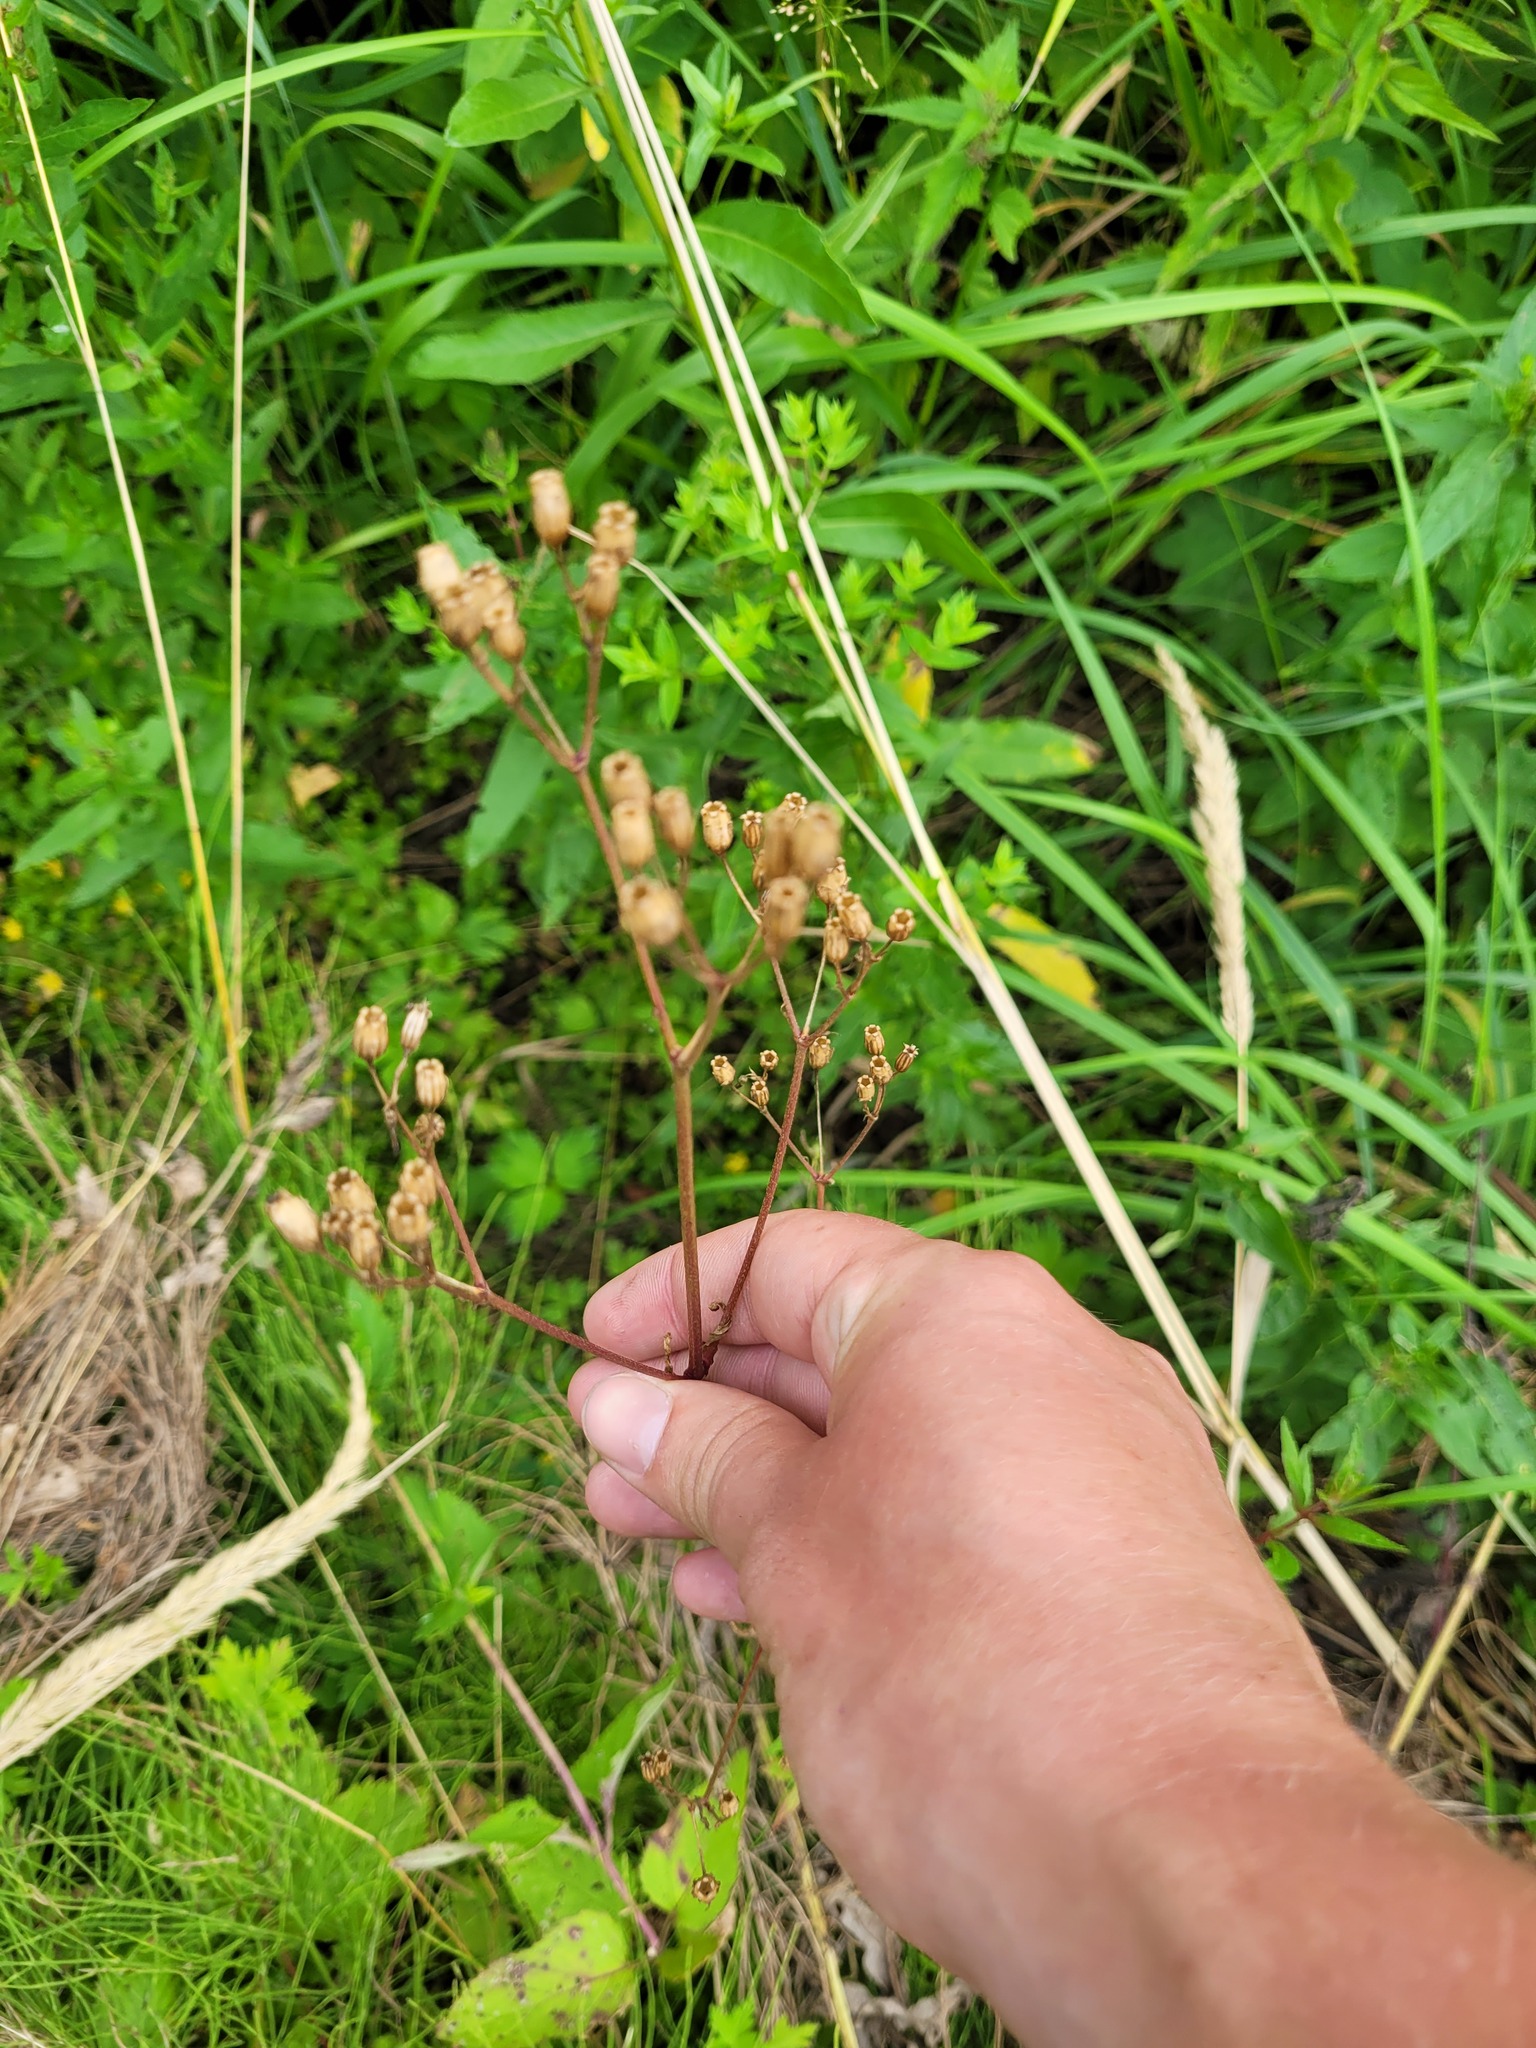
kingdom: Plantae
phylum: Tracheophyta
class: Magnoliopsida
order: Caryophyllales
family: Caryophyllaceae
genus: Silene
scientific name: Silene flos-cuculi
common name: Ragged-robin
